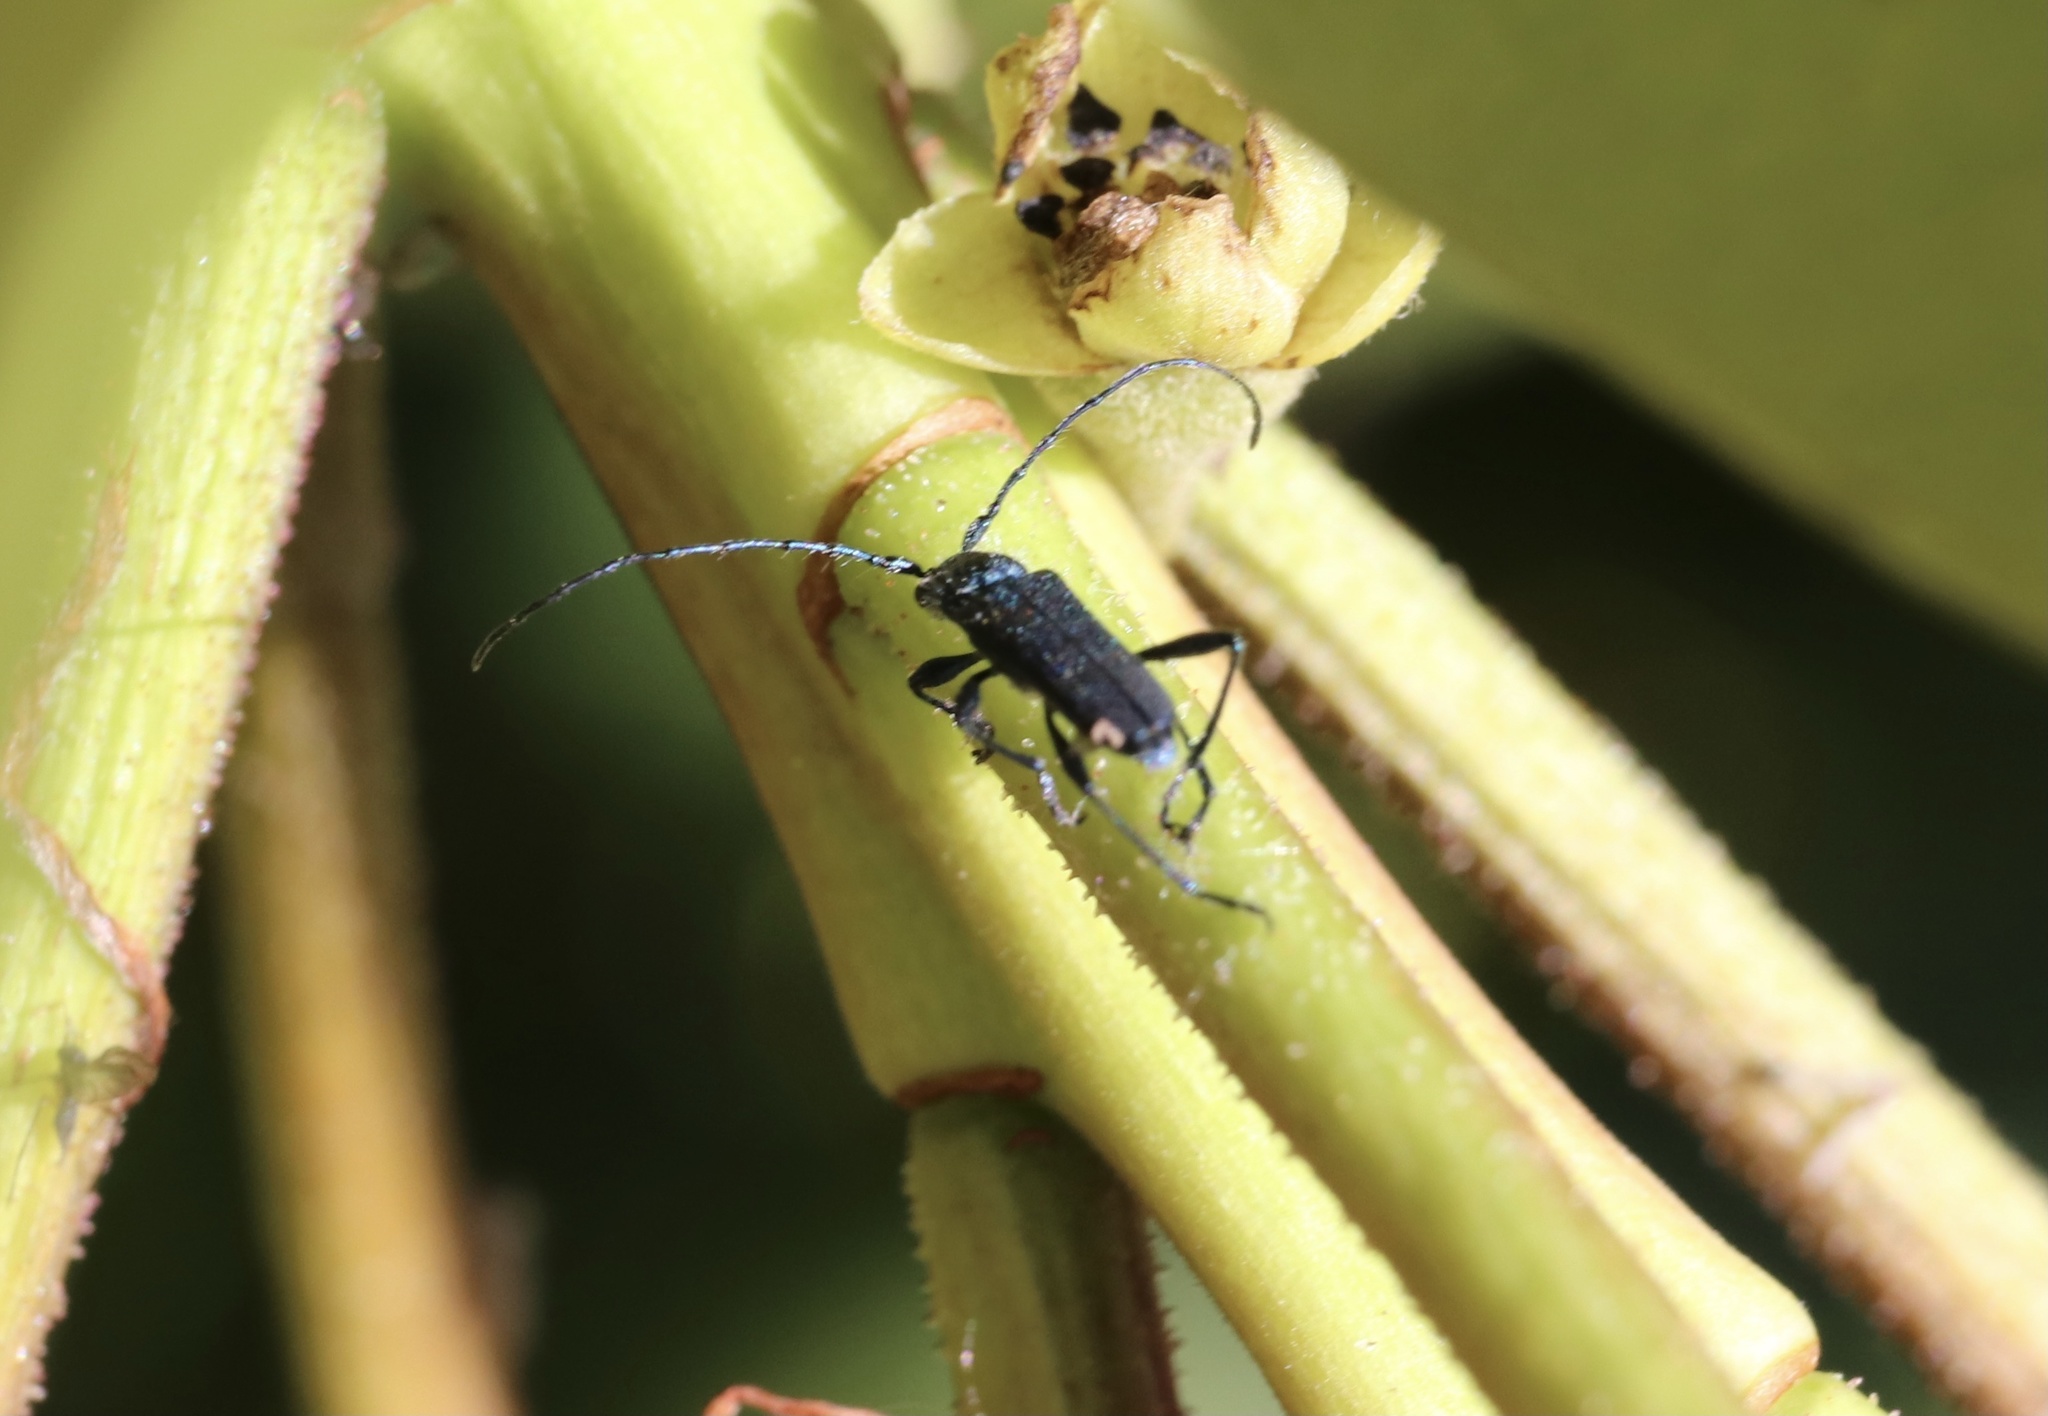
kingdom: Animalia
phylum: Arthropoda
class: Insecta
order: Coleoptera
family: Cerambycidae
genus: Eryphus
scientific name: Eryphus laetus
